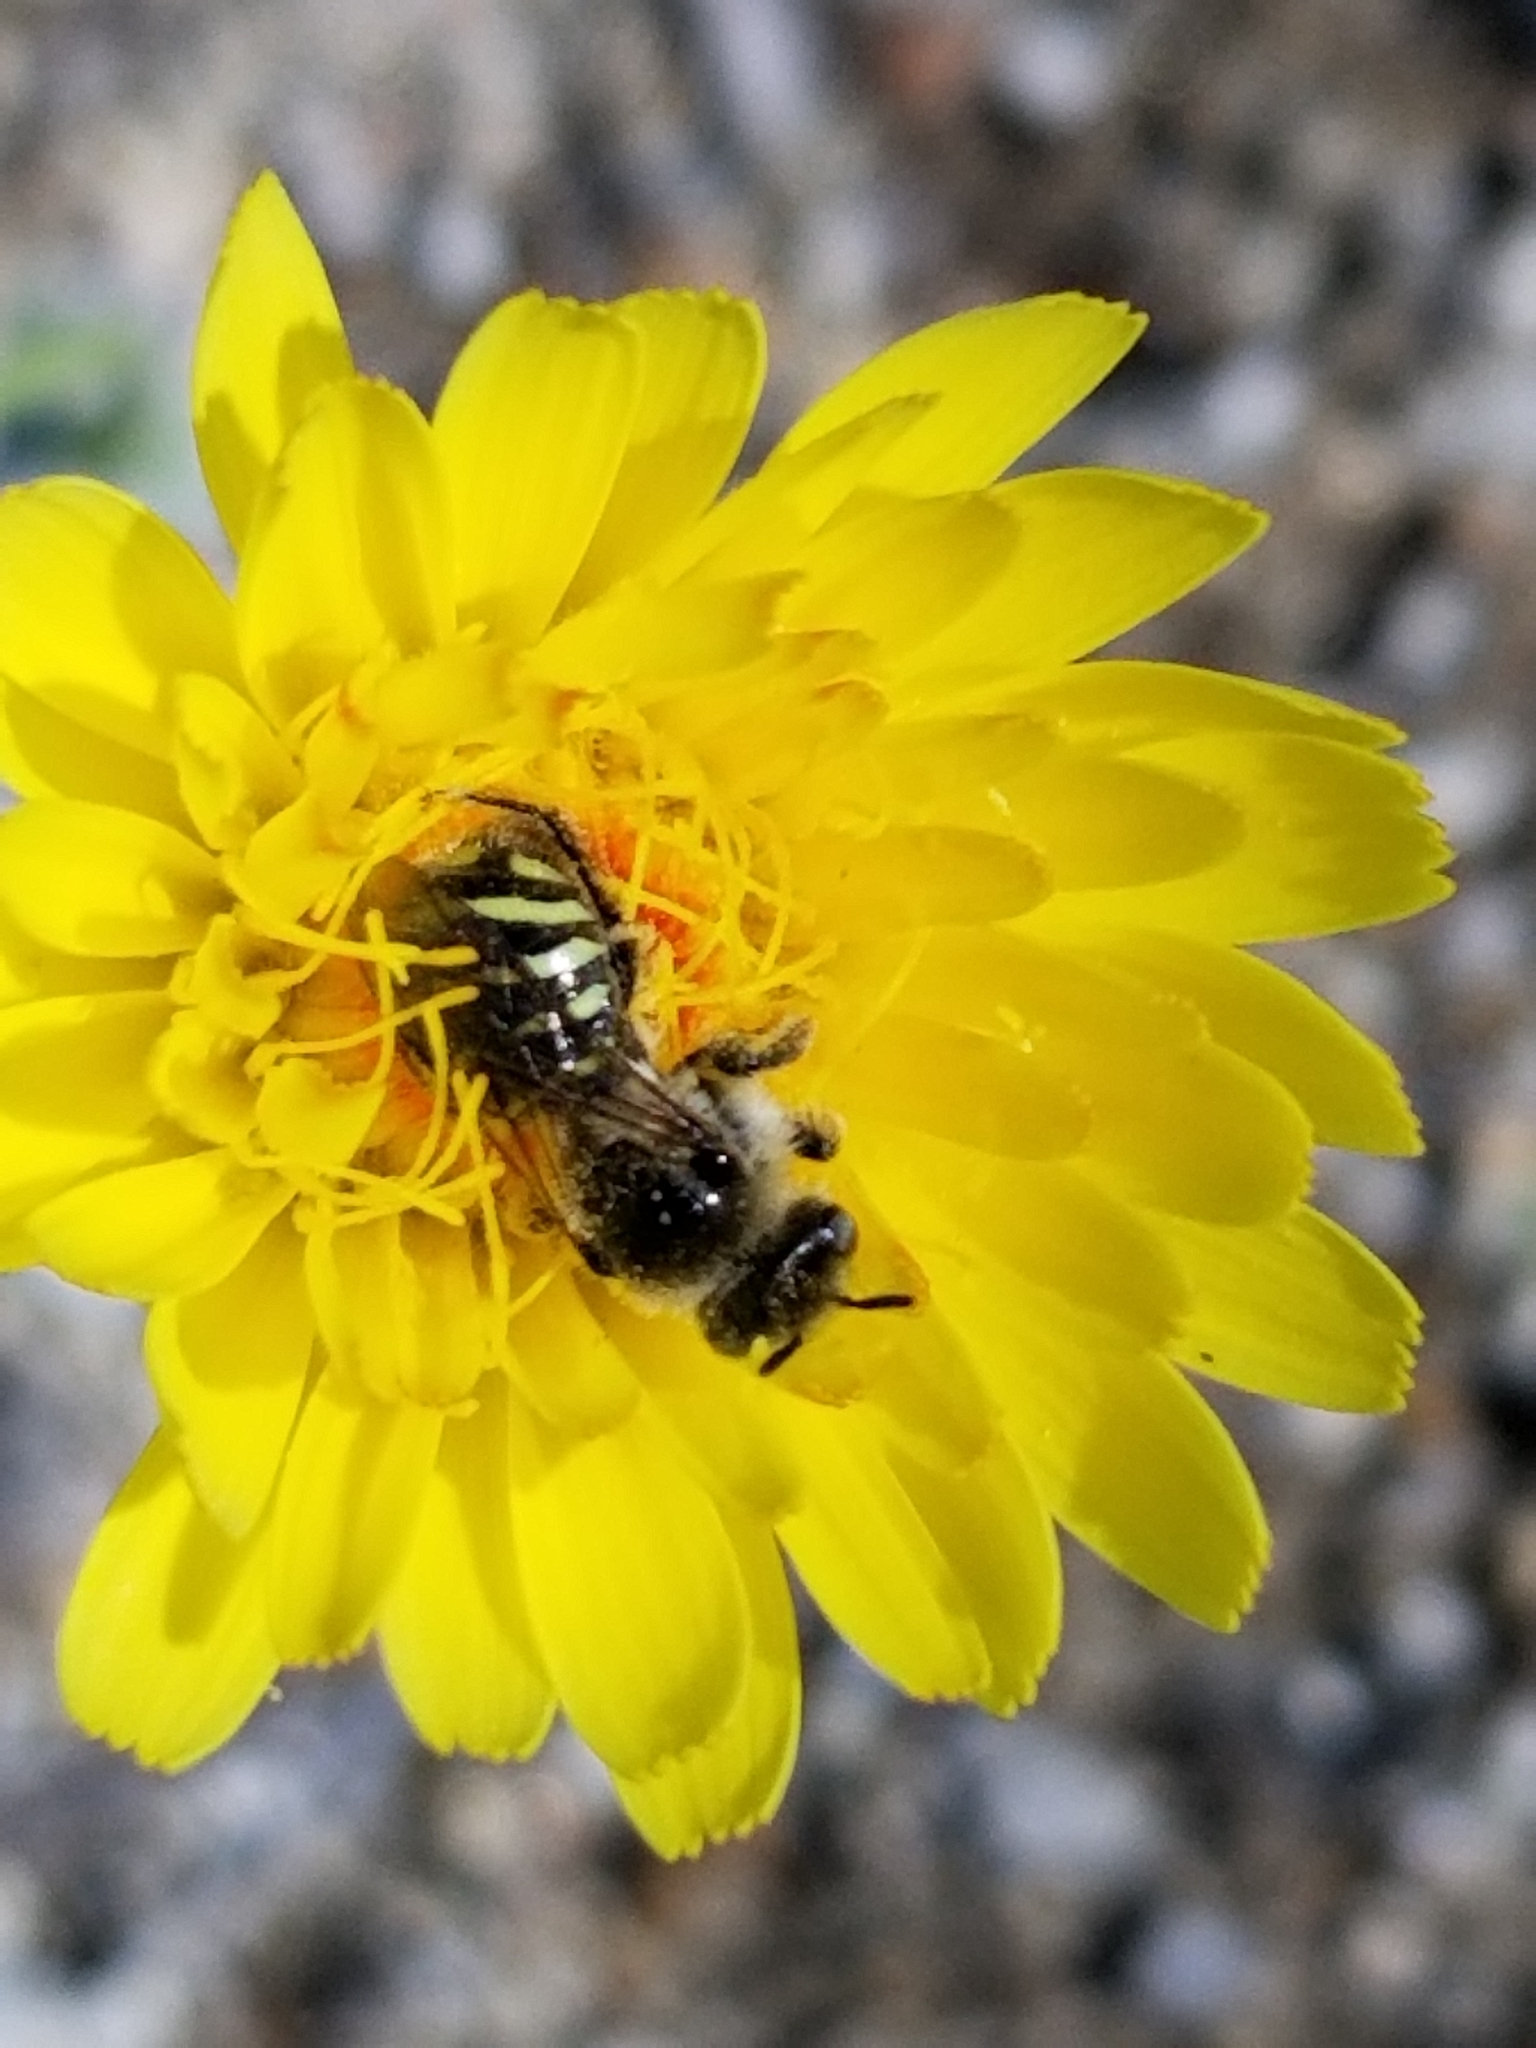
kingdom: Animalia
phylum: Arthropoda
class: Insecta
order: Hymenoptera
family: Andrenidae
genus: Calliopsis
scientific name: Calliopsis puellae
